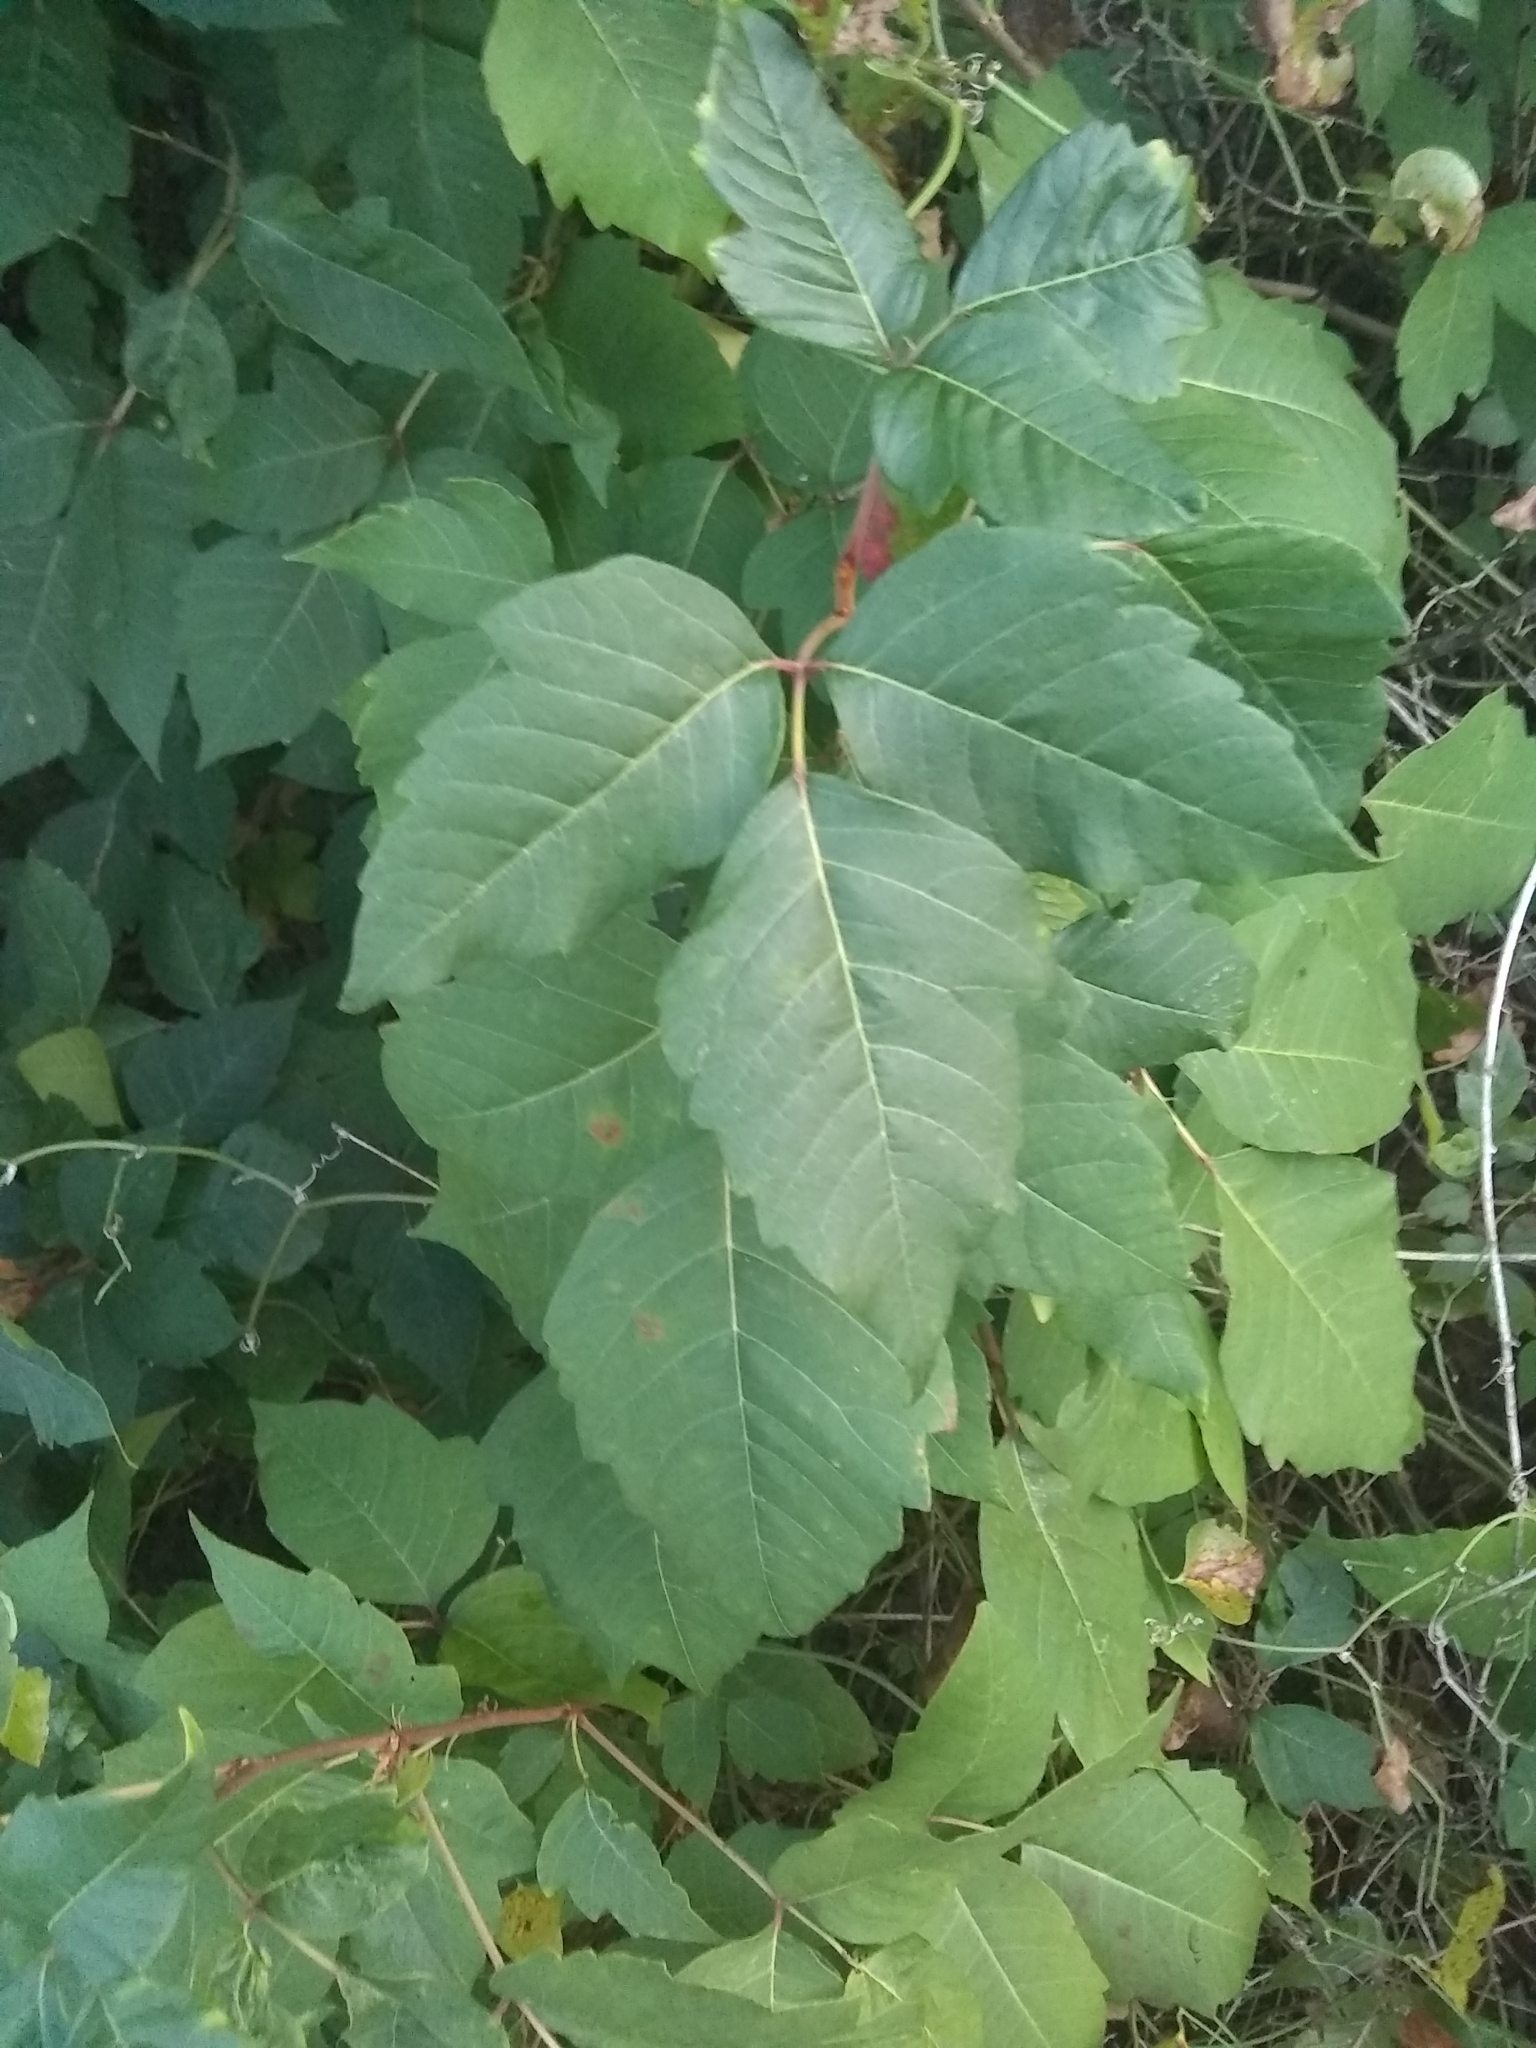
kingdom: Plantae
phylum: Tracheophyta
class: Magnoliopsida
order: Sapindales
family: Anacardiaceae
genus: Toxicodendron
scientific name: Toxicodendron radicans
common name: Poison ivy
